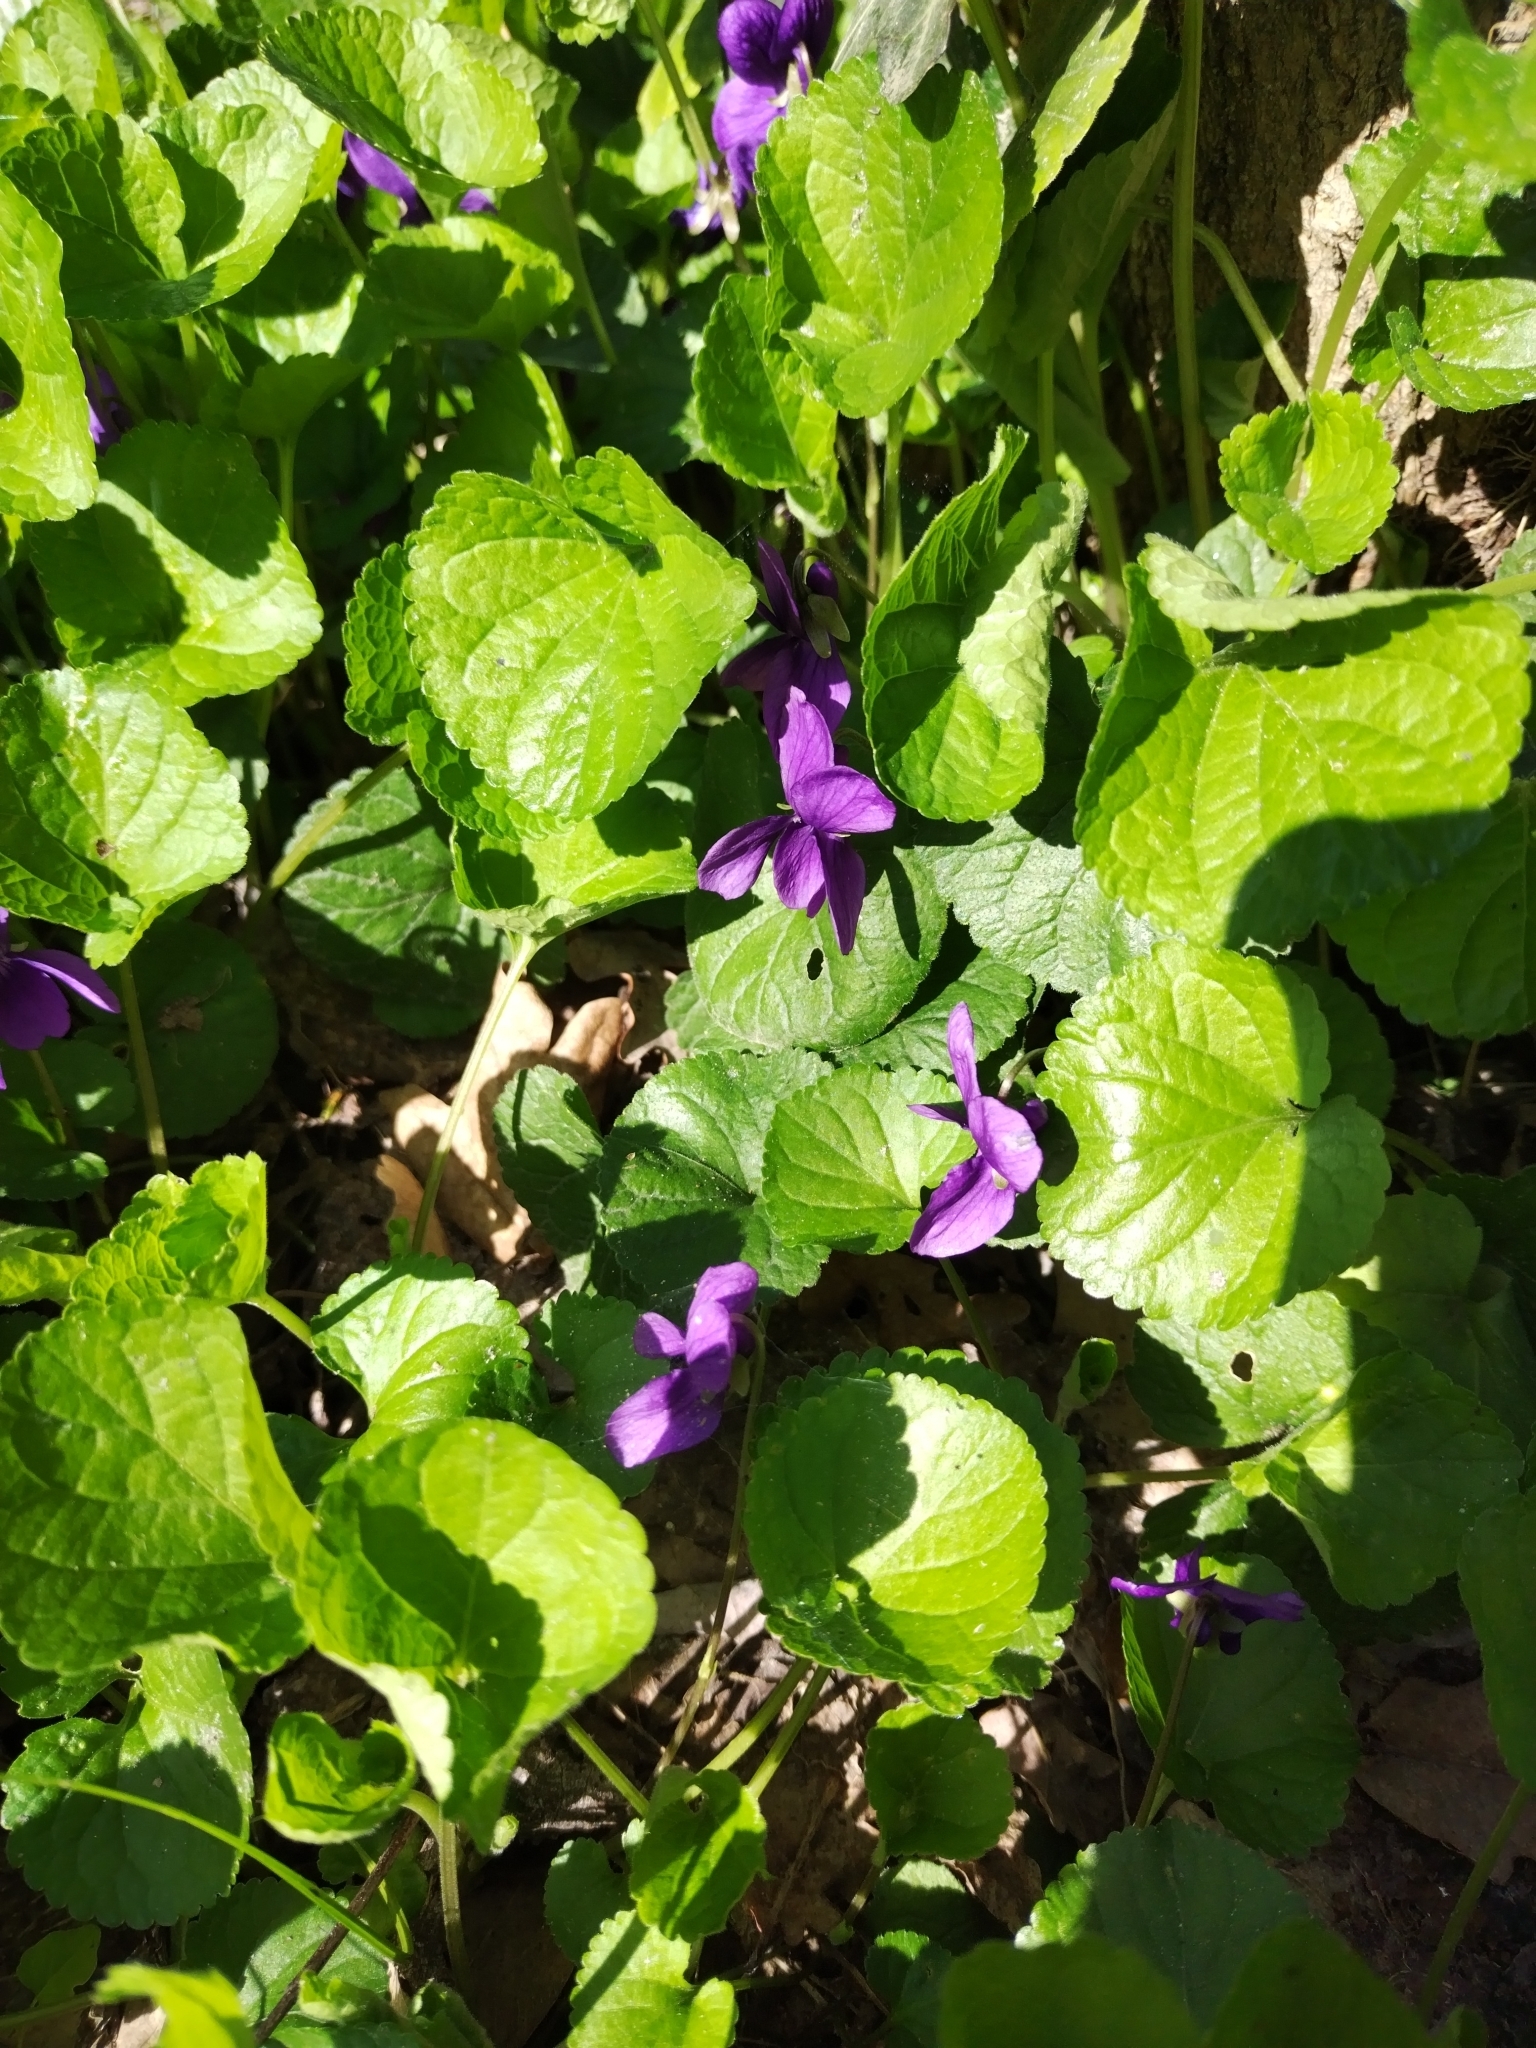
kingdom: Plantae
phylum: Tracheophyta
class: Magnoliopsida
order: Malpighiales
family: Violaceae
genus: Viola
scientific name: Viola odorata
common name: Sweet violet
